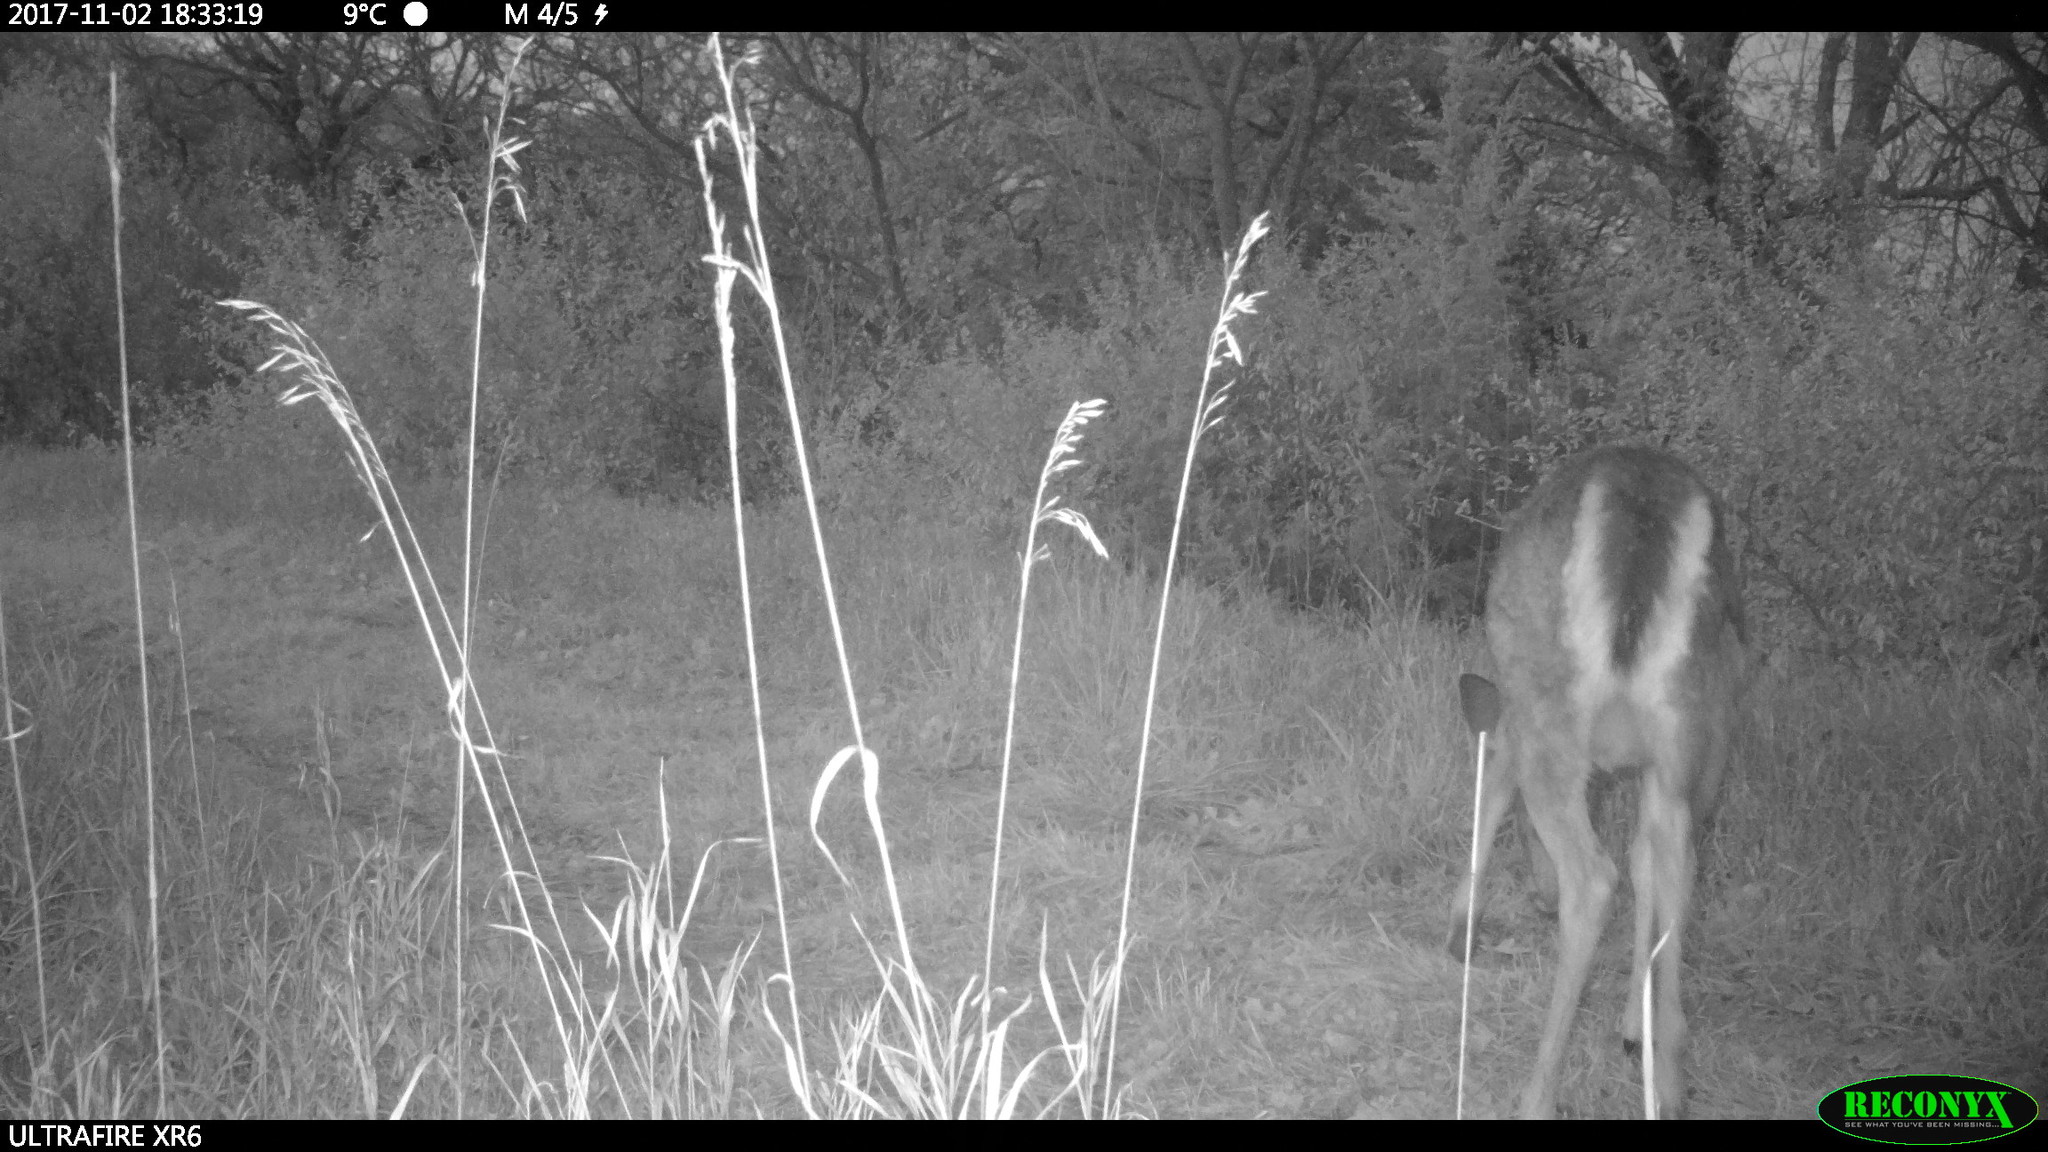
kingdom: Animalia
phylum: Chordata
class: Mammalia
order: Artiodactyla
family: Cervidae
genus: Odocoileus
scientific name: Odocoileus virginianus
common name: White-tailed deer
